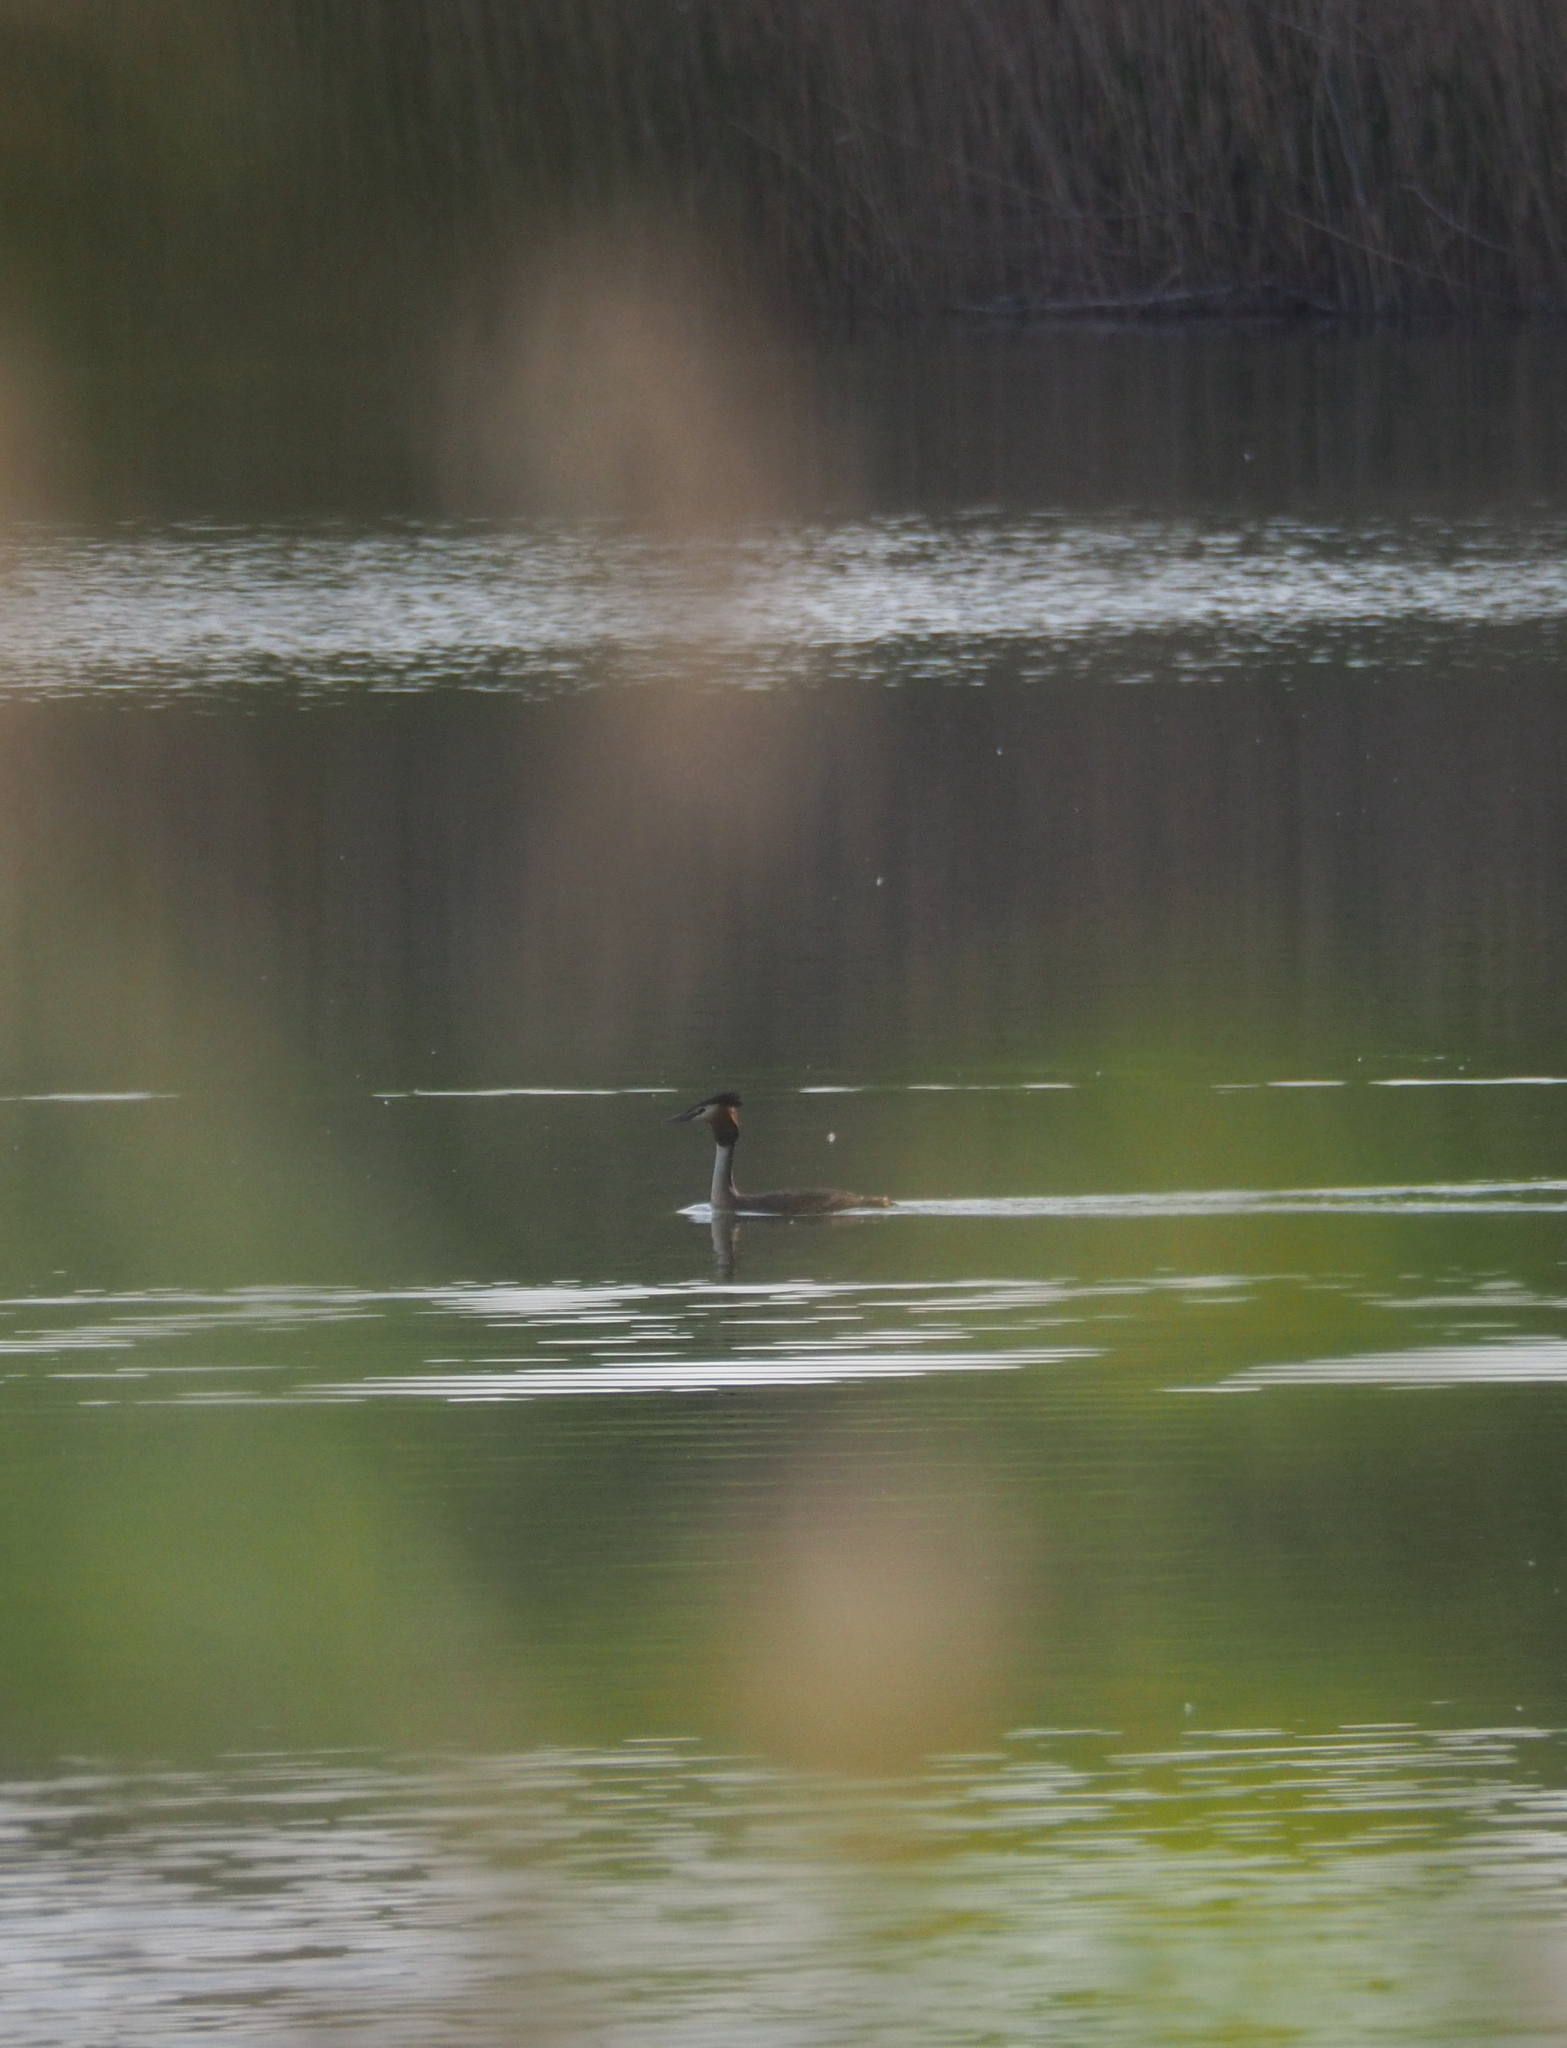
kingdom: Animalia
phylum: Chordata
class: Aves
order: Podicipediformes
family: Podicipedidae
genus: Podiceps
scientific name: Podiceps cristatus
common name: Great crested grebe
